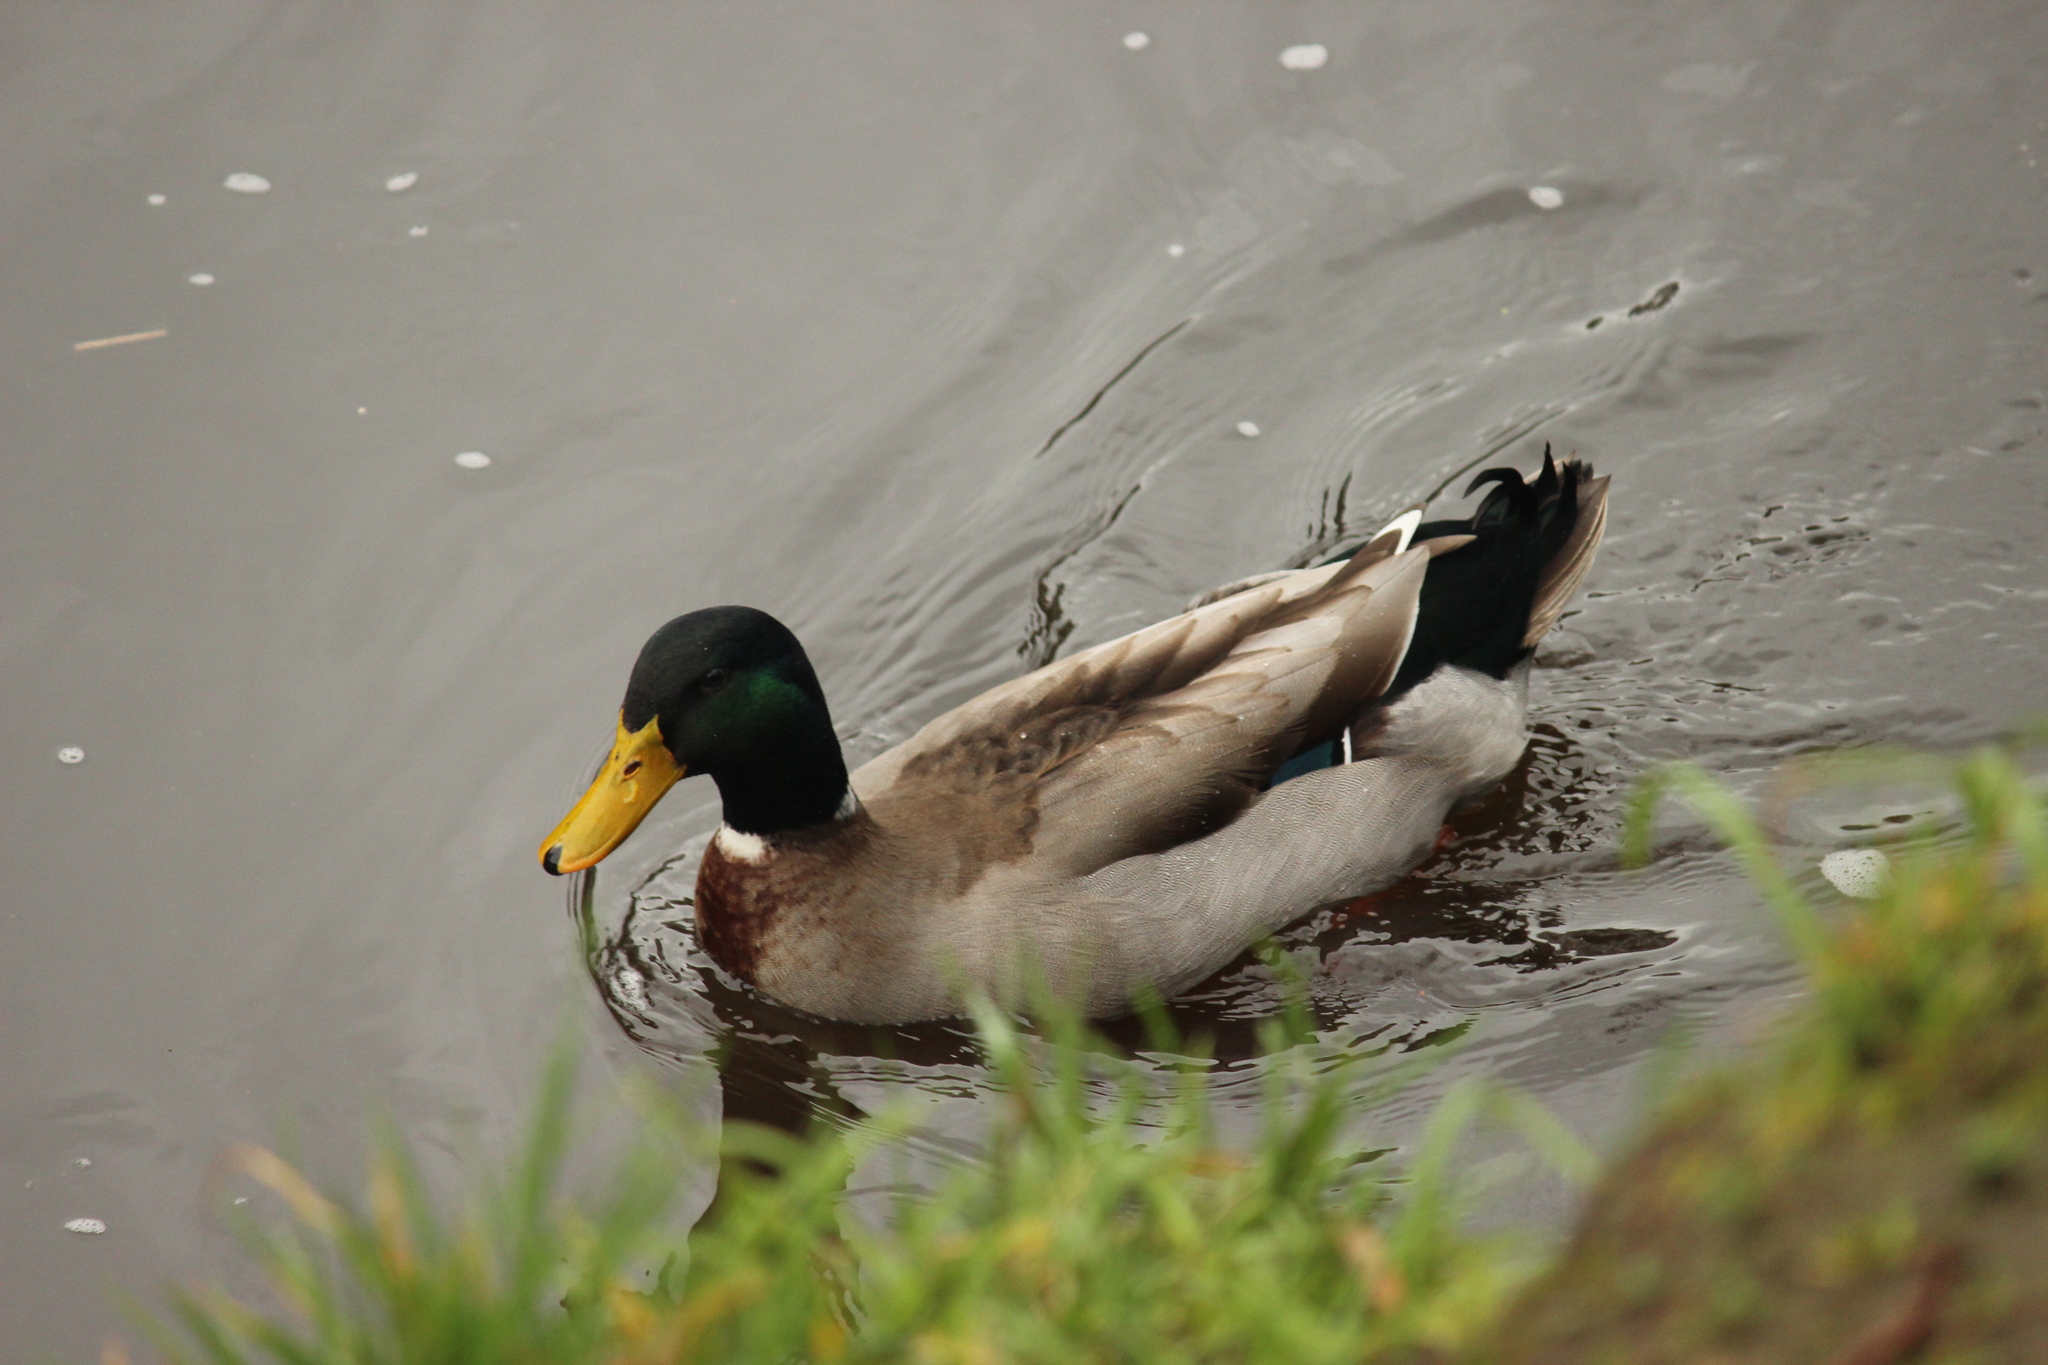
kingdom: Animalia
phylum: Chordata
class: Aves
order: Anseriformes
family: Anatidae
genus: Anas
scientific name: Anas platyrhynchos
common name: Mallard
